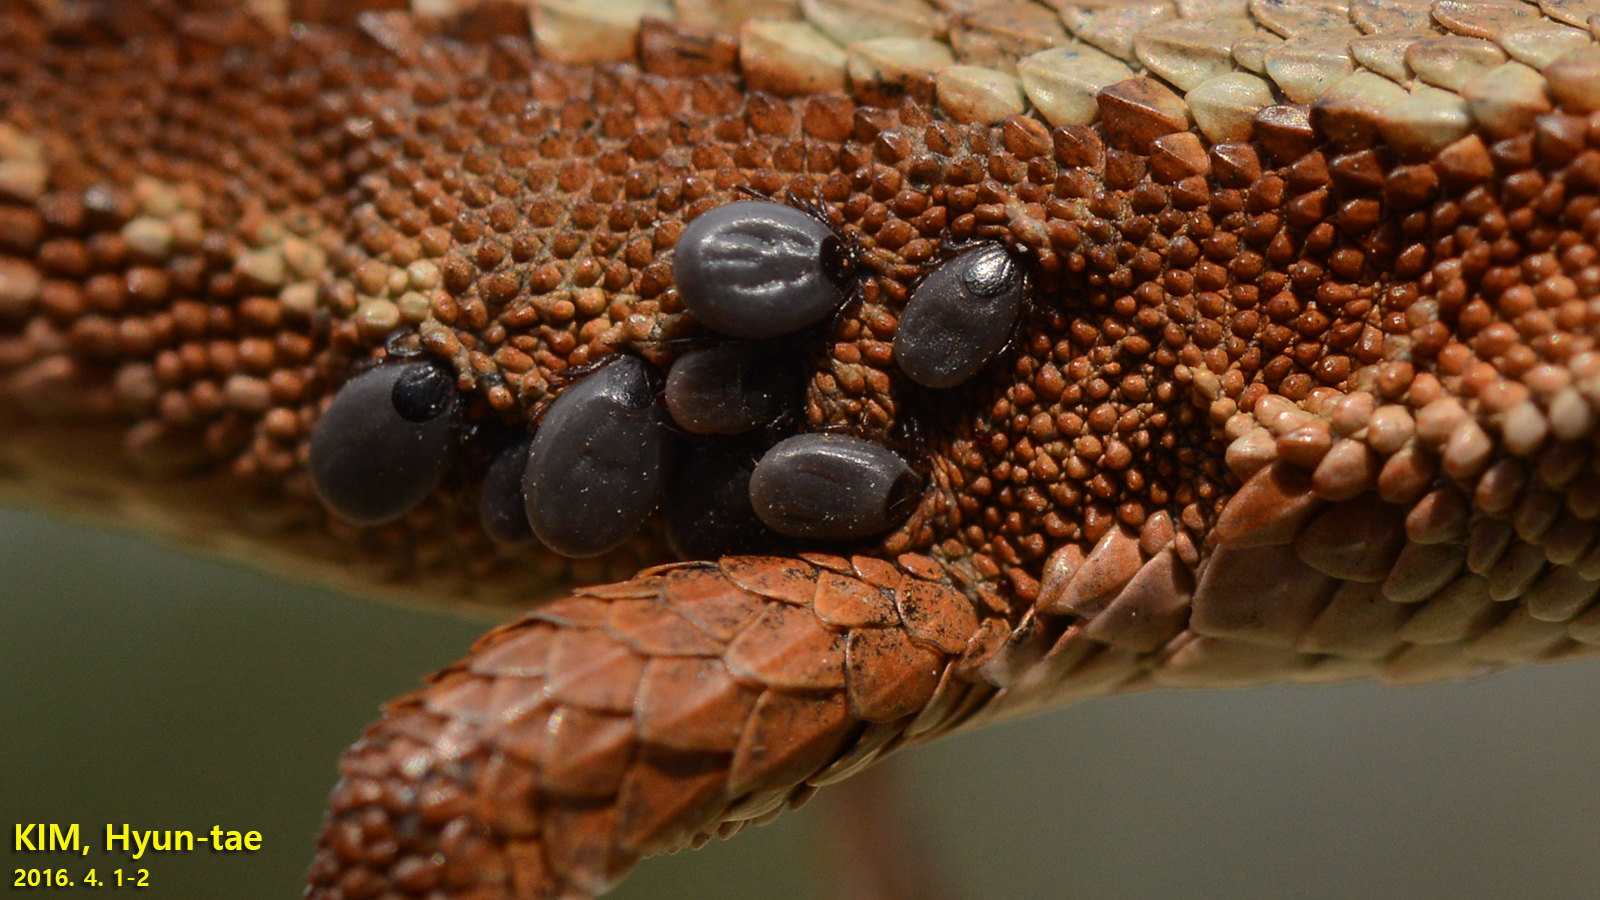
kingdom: Animalia
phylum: Arthropoda
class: Arachnida
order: Ixodida
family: Ixodidae
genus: Ixodes
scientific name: Ixodes nipponensis
